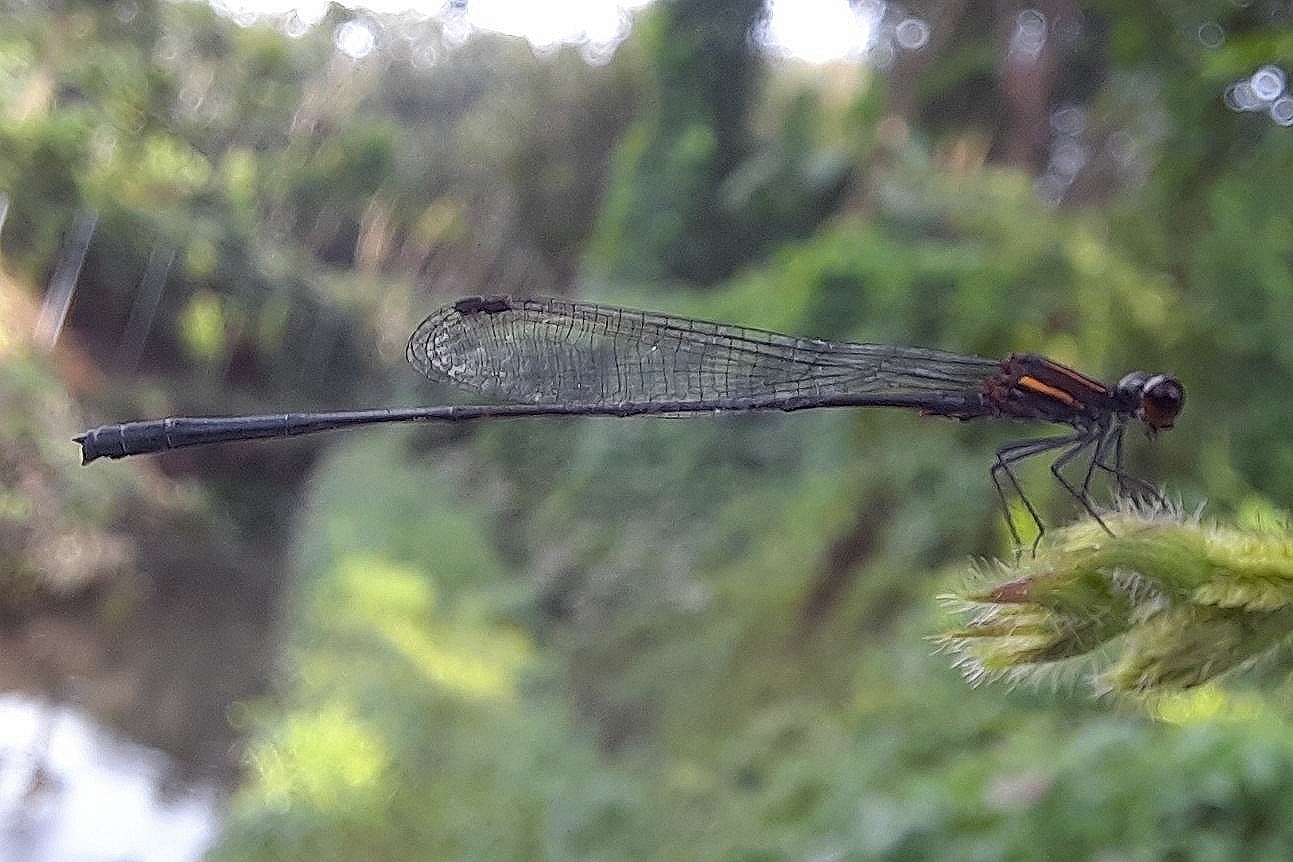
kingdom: Animalia
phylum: Arthropoda
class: Insecta
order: Odonata
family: Platycnemididae
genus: Prodasineura
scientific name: Prodasineura verticalis
